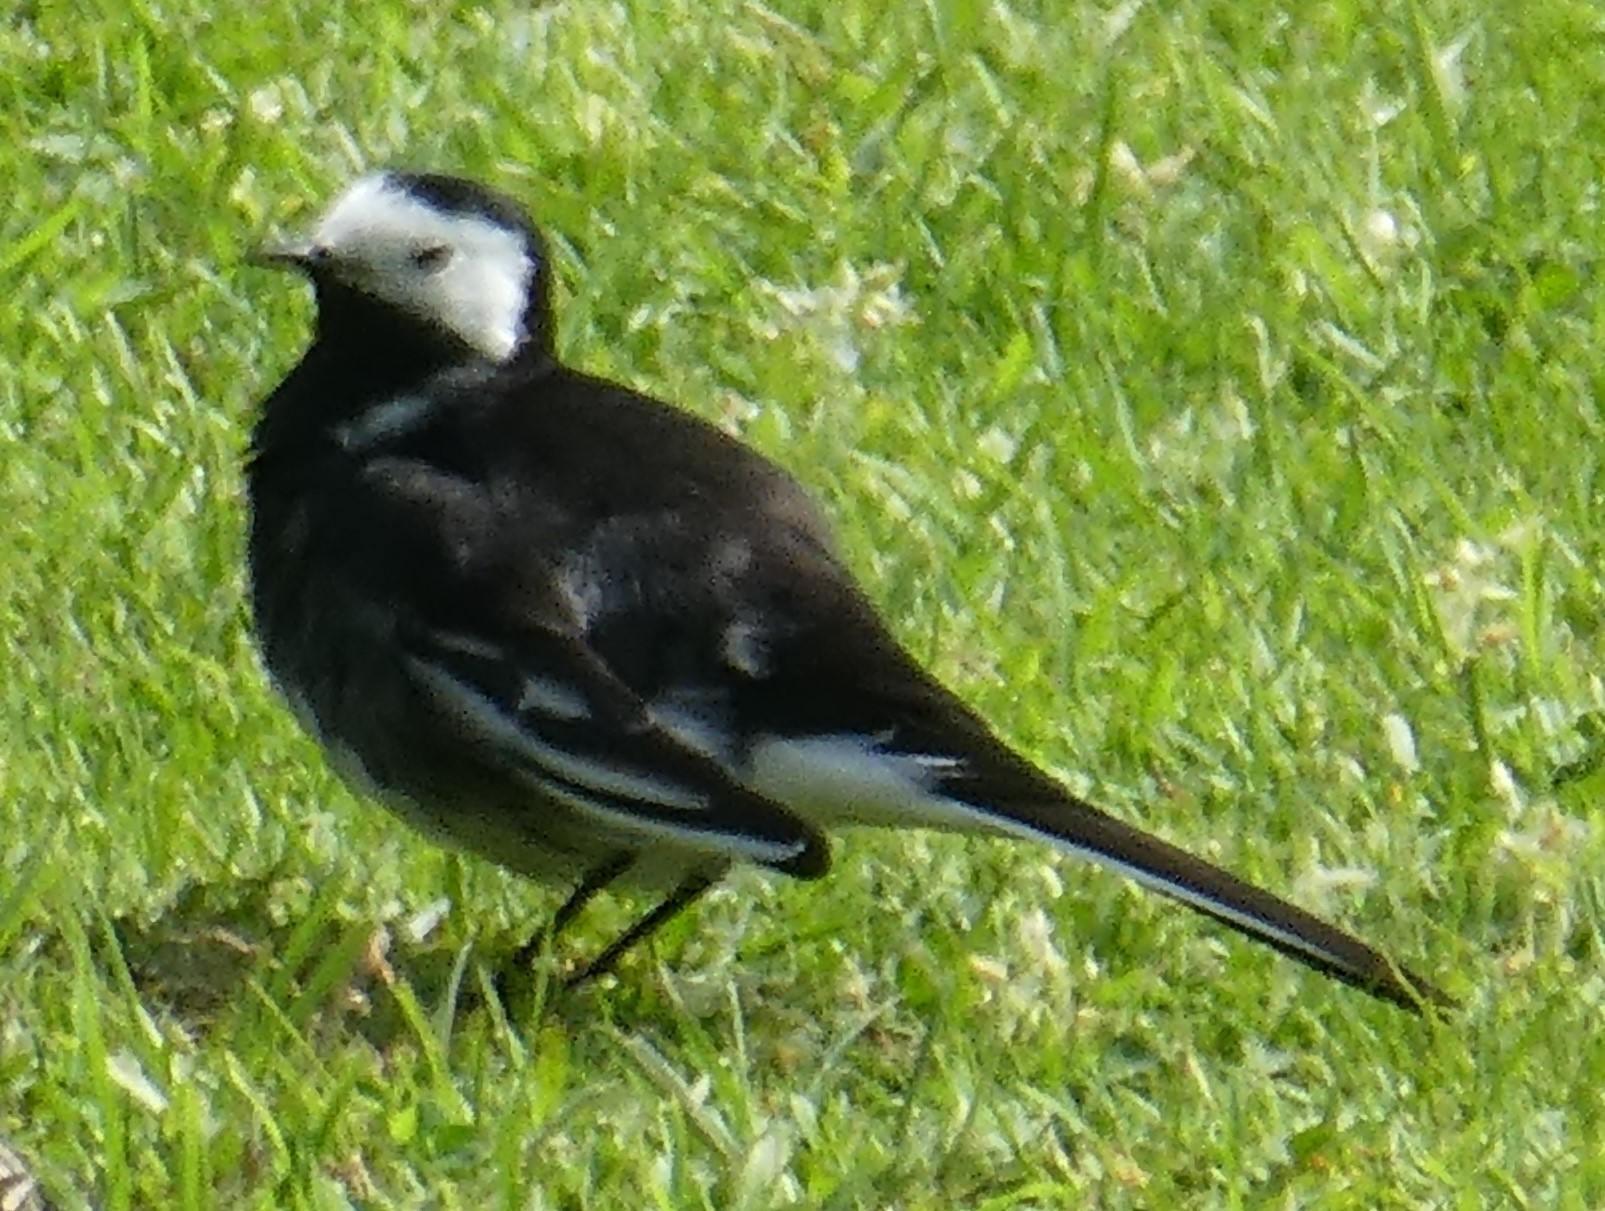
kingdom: Animalia
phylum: Chordata
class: Aves
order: Passeriformes
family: Motacillidae
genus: Motacilla
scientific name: Motacilla alba
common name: White wagtail
